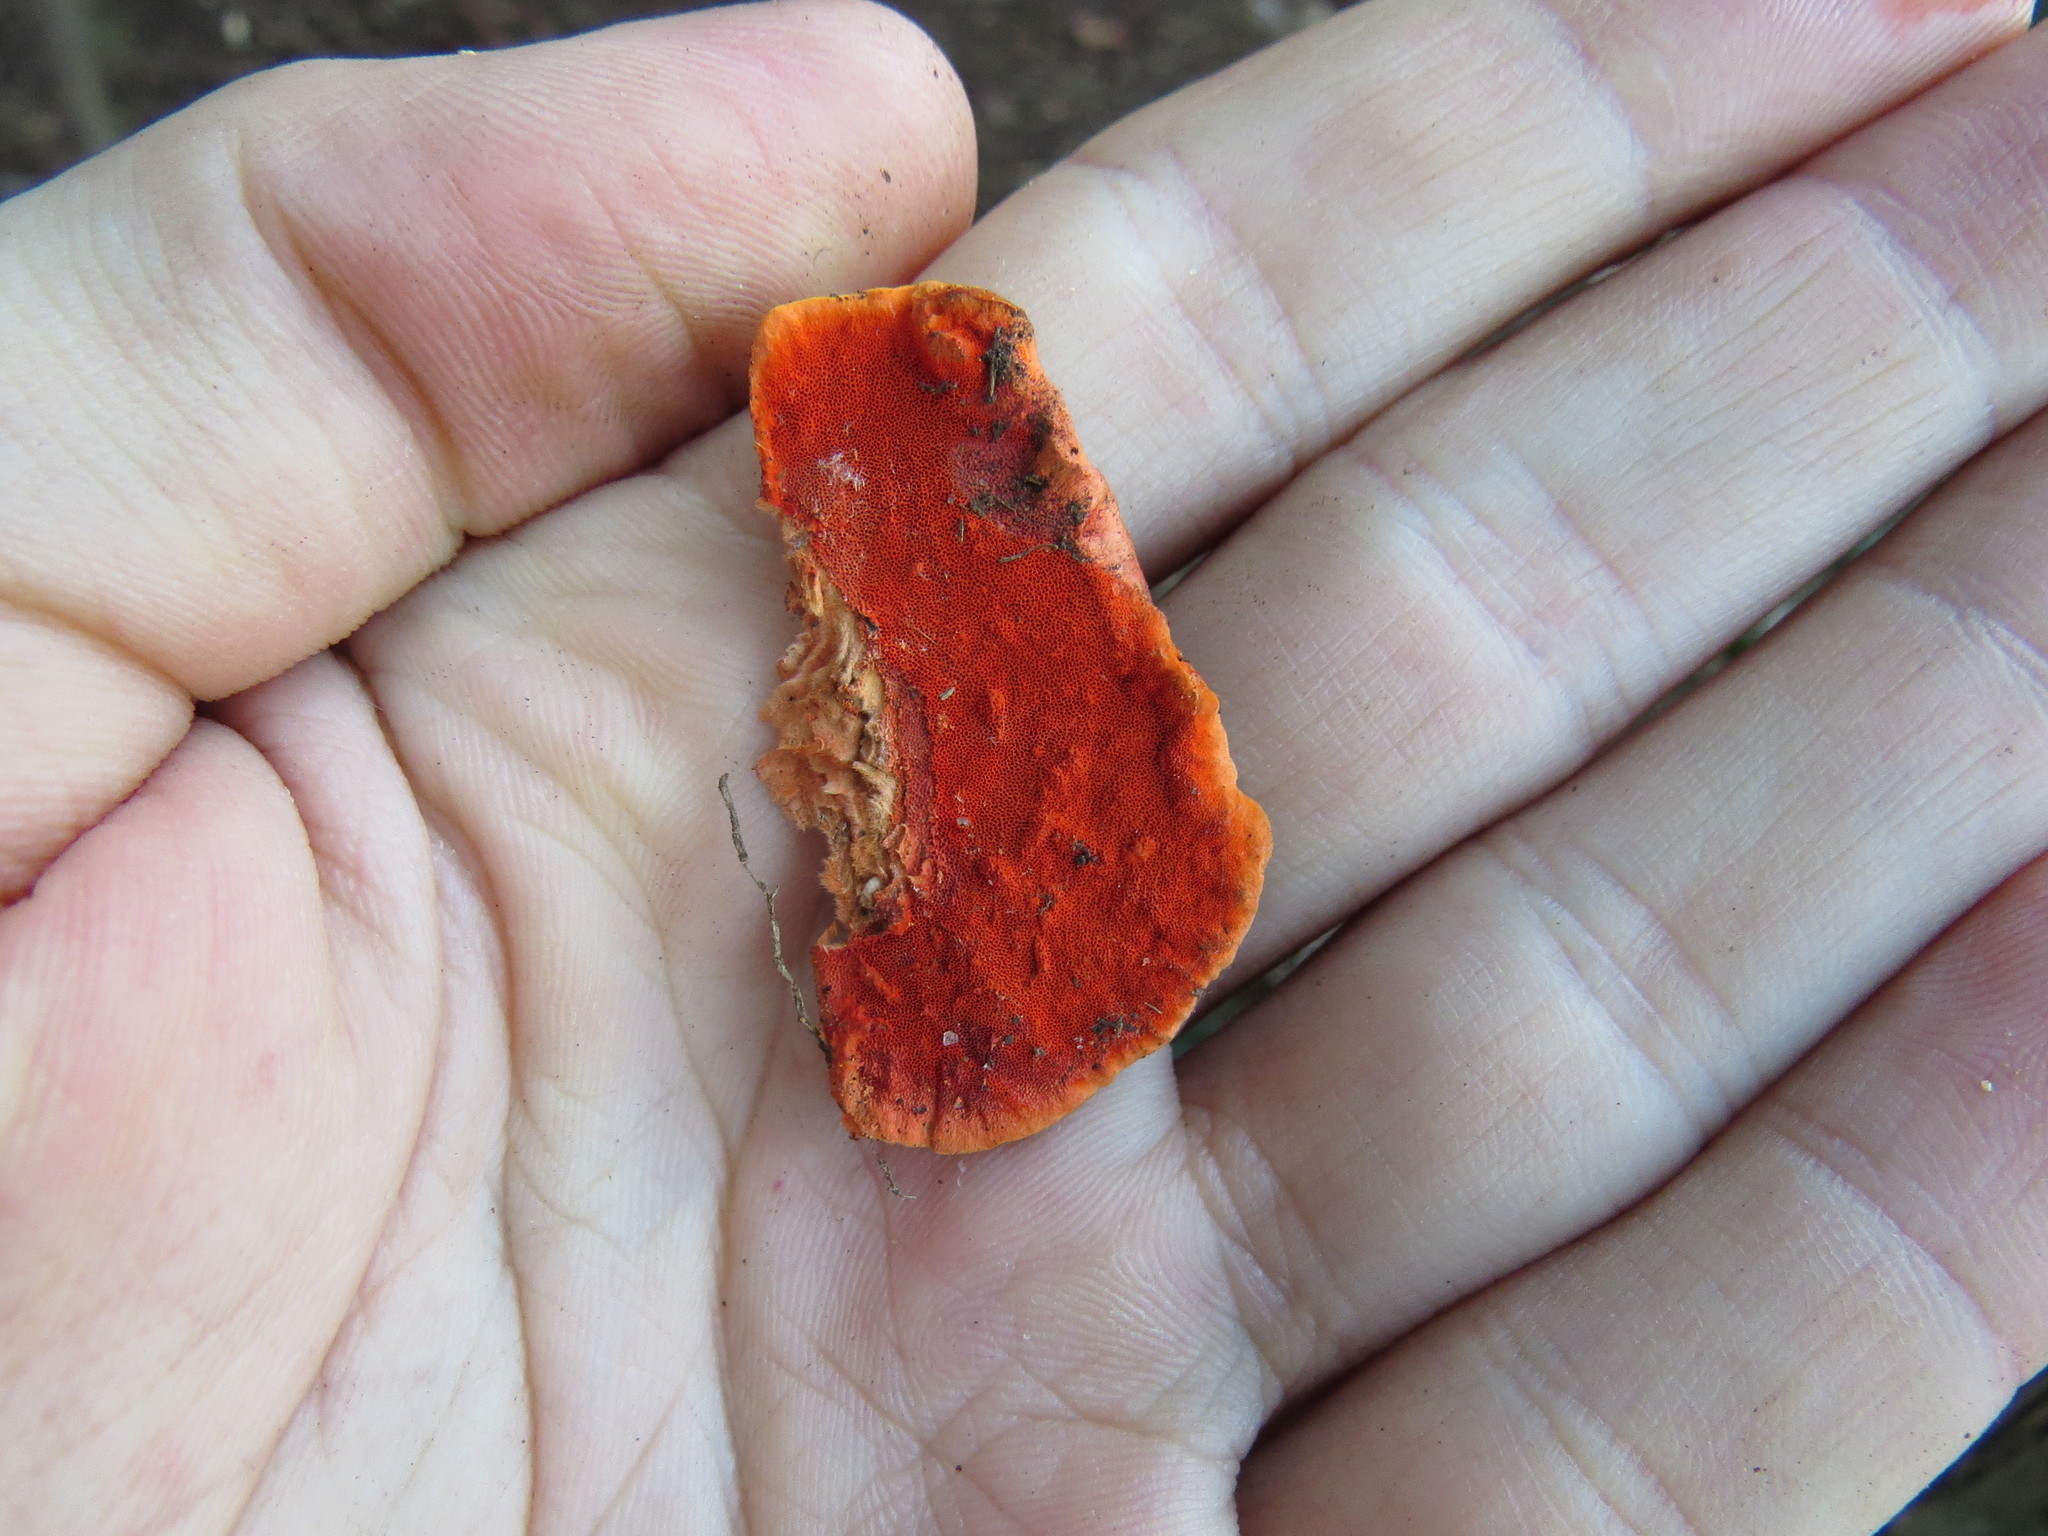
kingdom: Fungi
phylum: Basidiomycota
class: Agaricomycetes
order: Polyporales
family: Polyporaceae
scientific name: Polyporaceae
